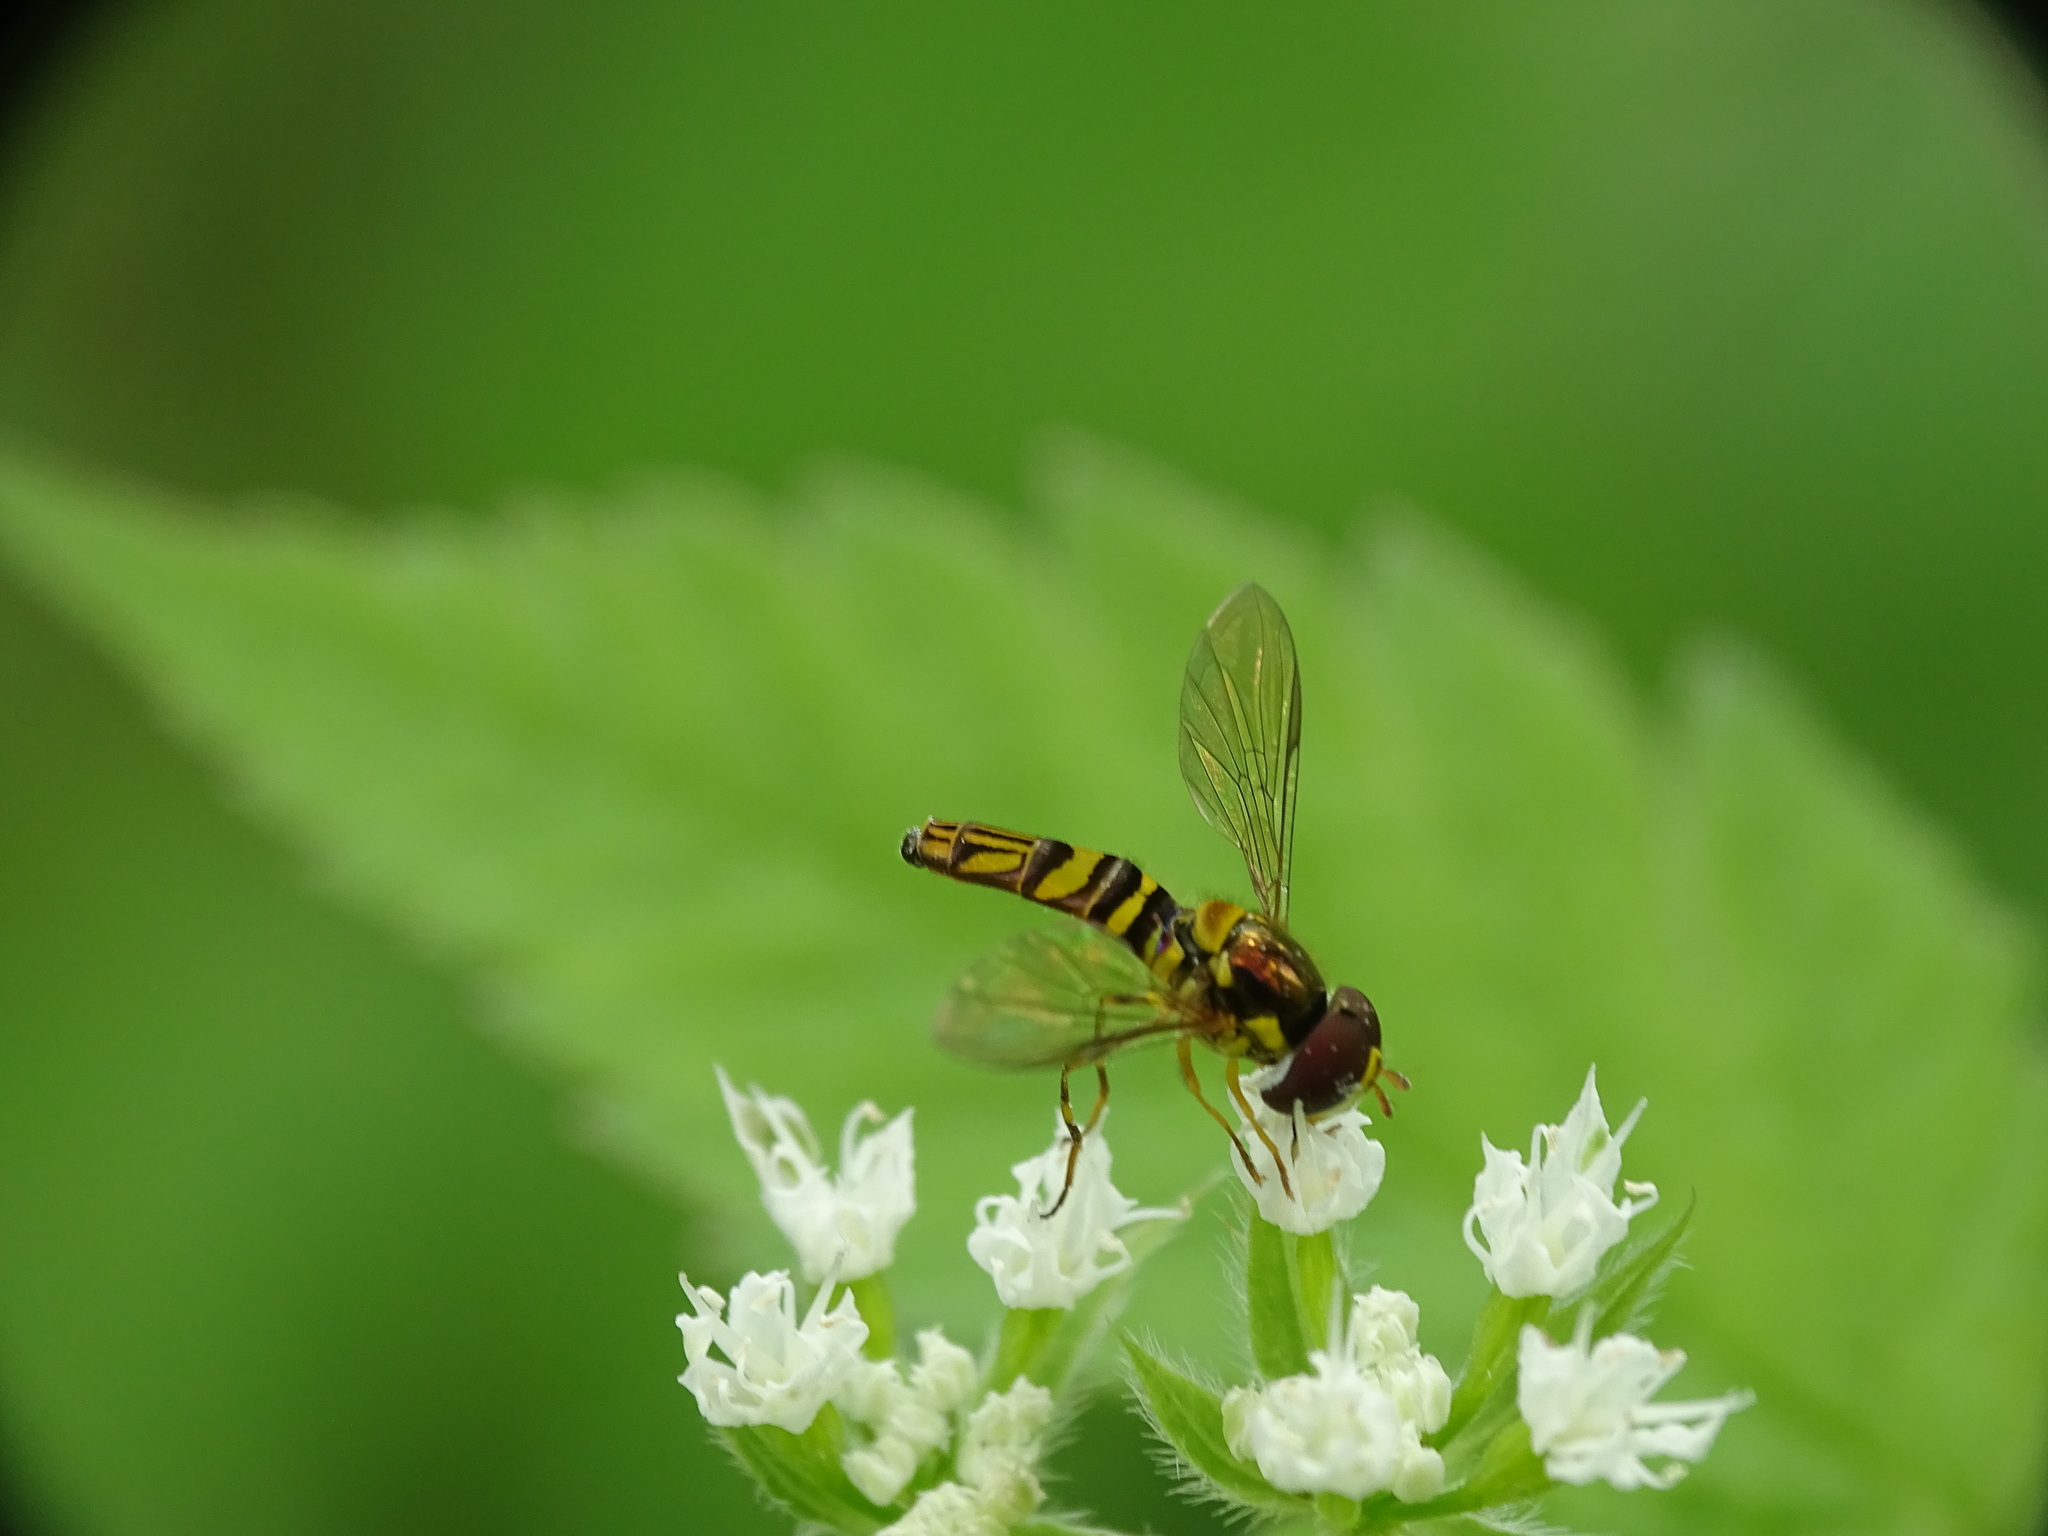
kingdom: Animalia
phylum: Arthropoda
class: Insecta
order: Diptera
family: Syrphidae
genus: Allograpta
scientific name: Allograpta obliqua
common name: Common oblique syrphid
